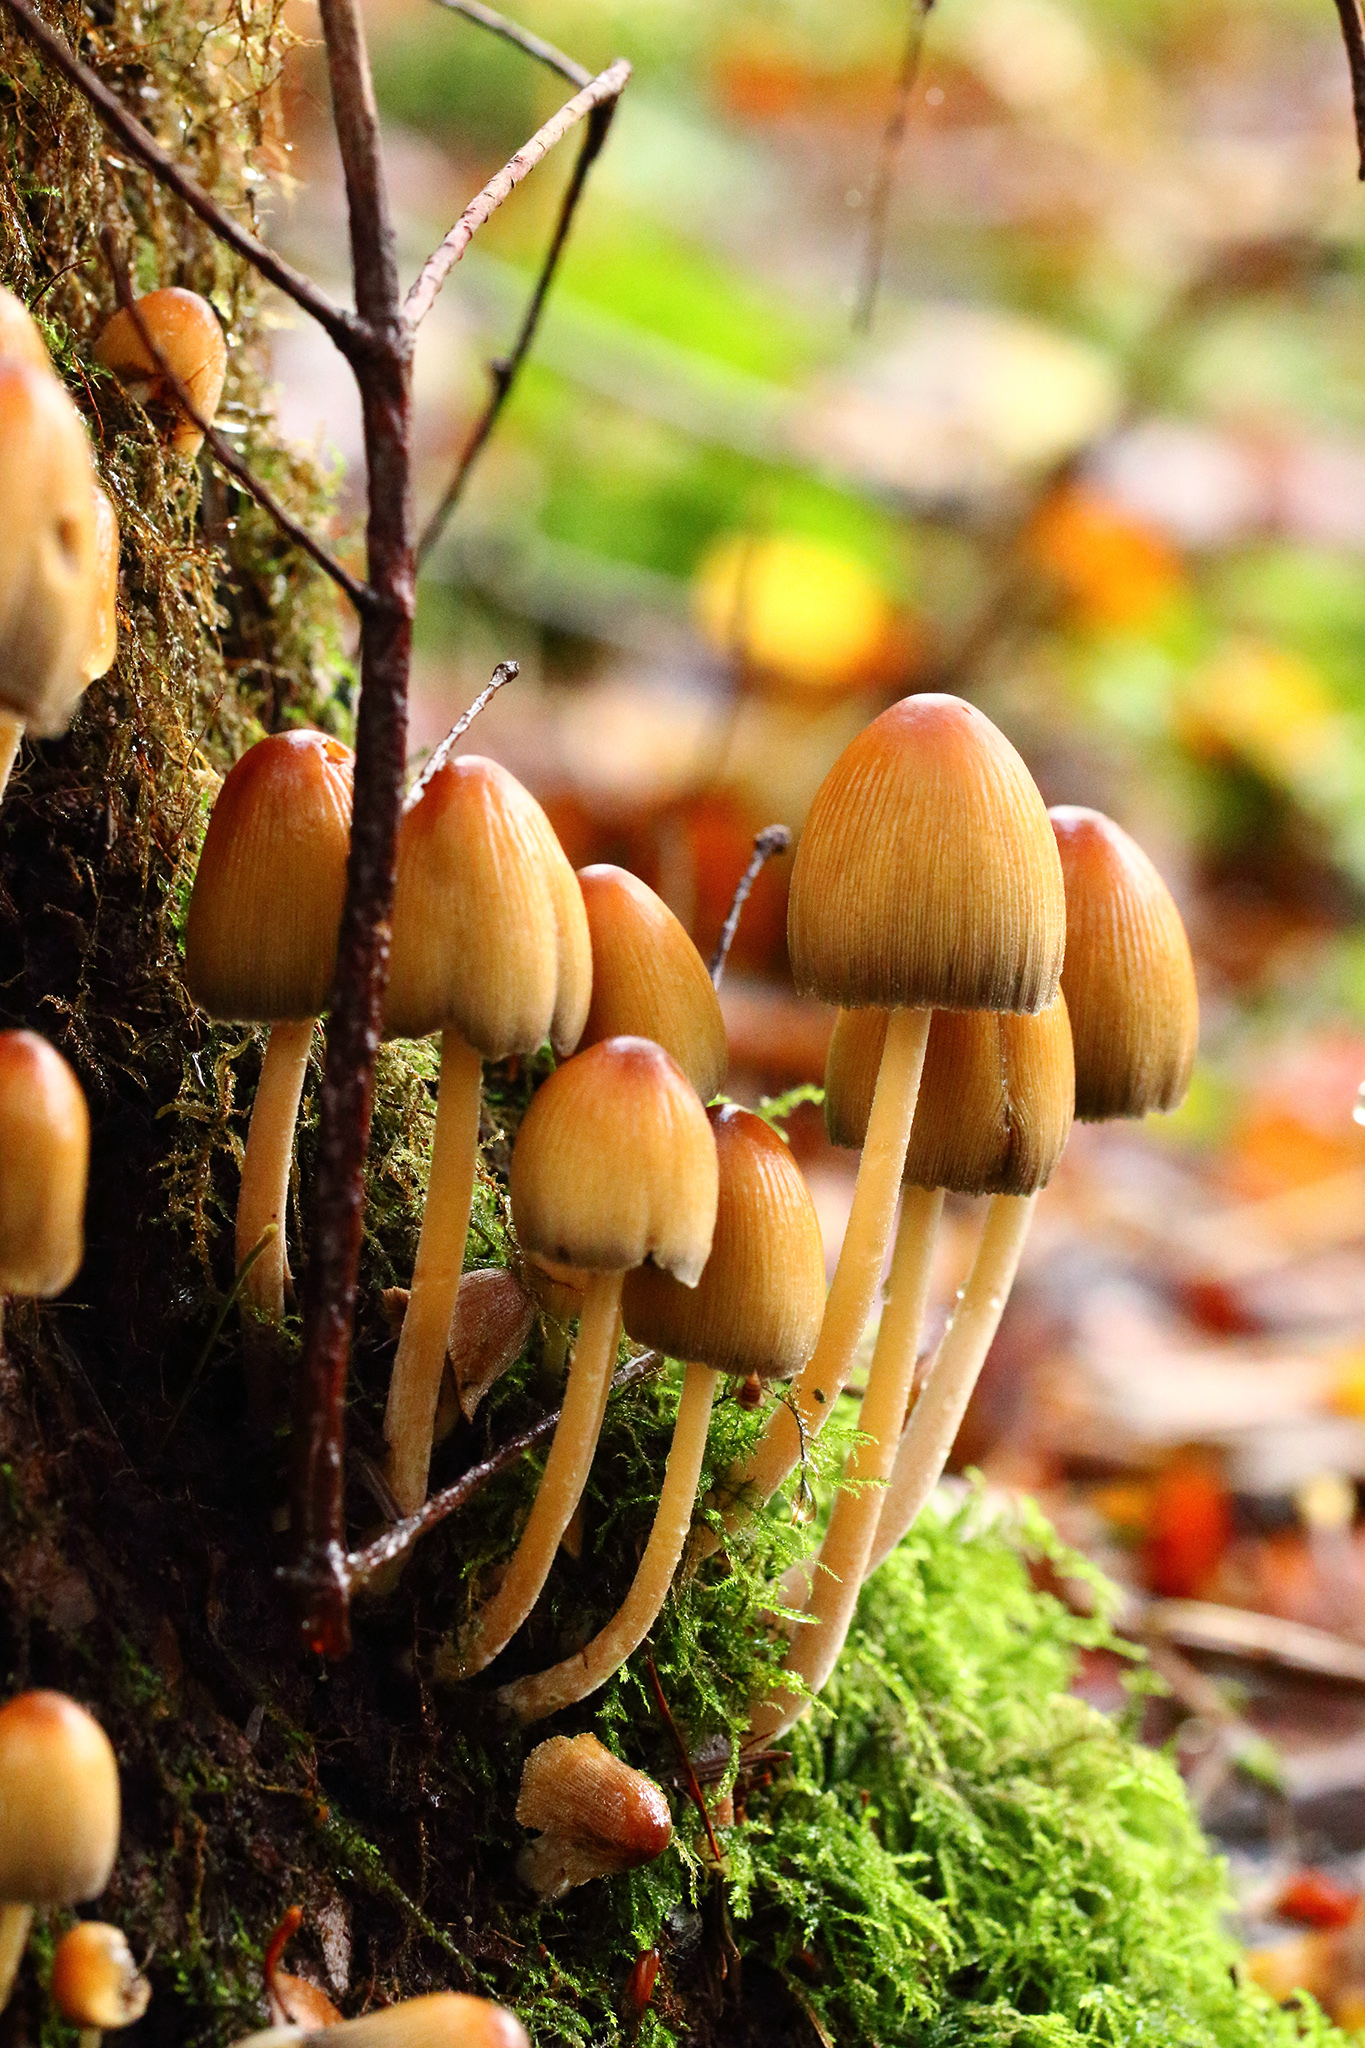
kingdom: Fungi
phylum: Basidiomycota
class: Agaricomycetes
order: Agaricales
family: Psathyrellaceae
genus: Coprinellus
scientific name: Coprinellus micaceus
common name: Glistening ink-cap
